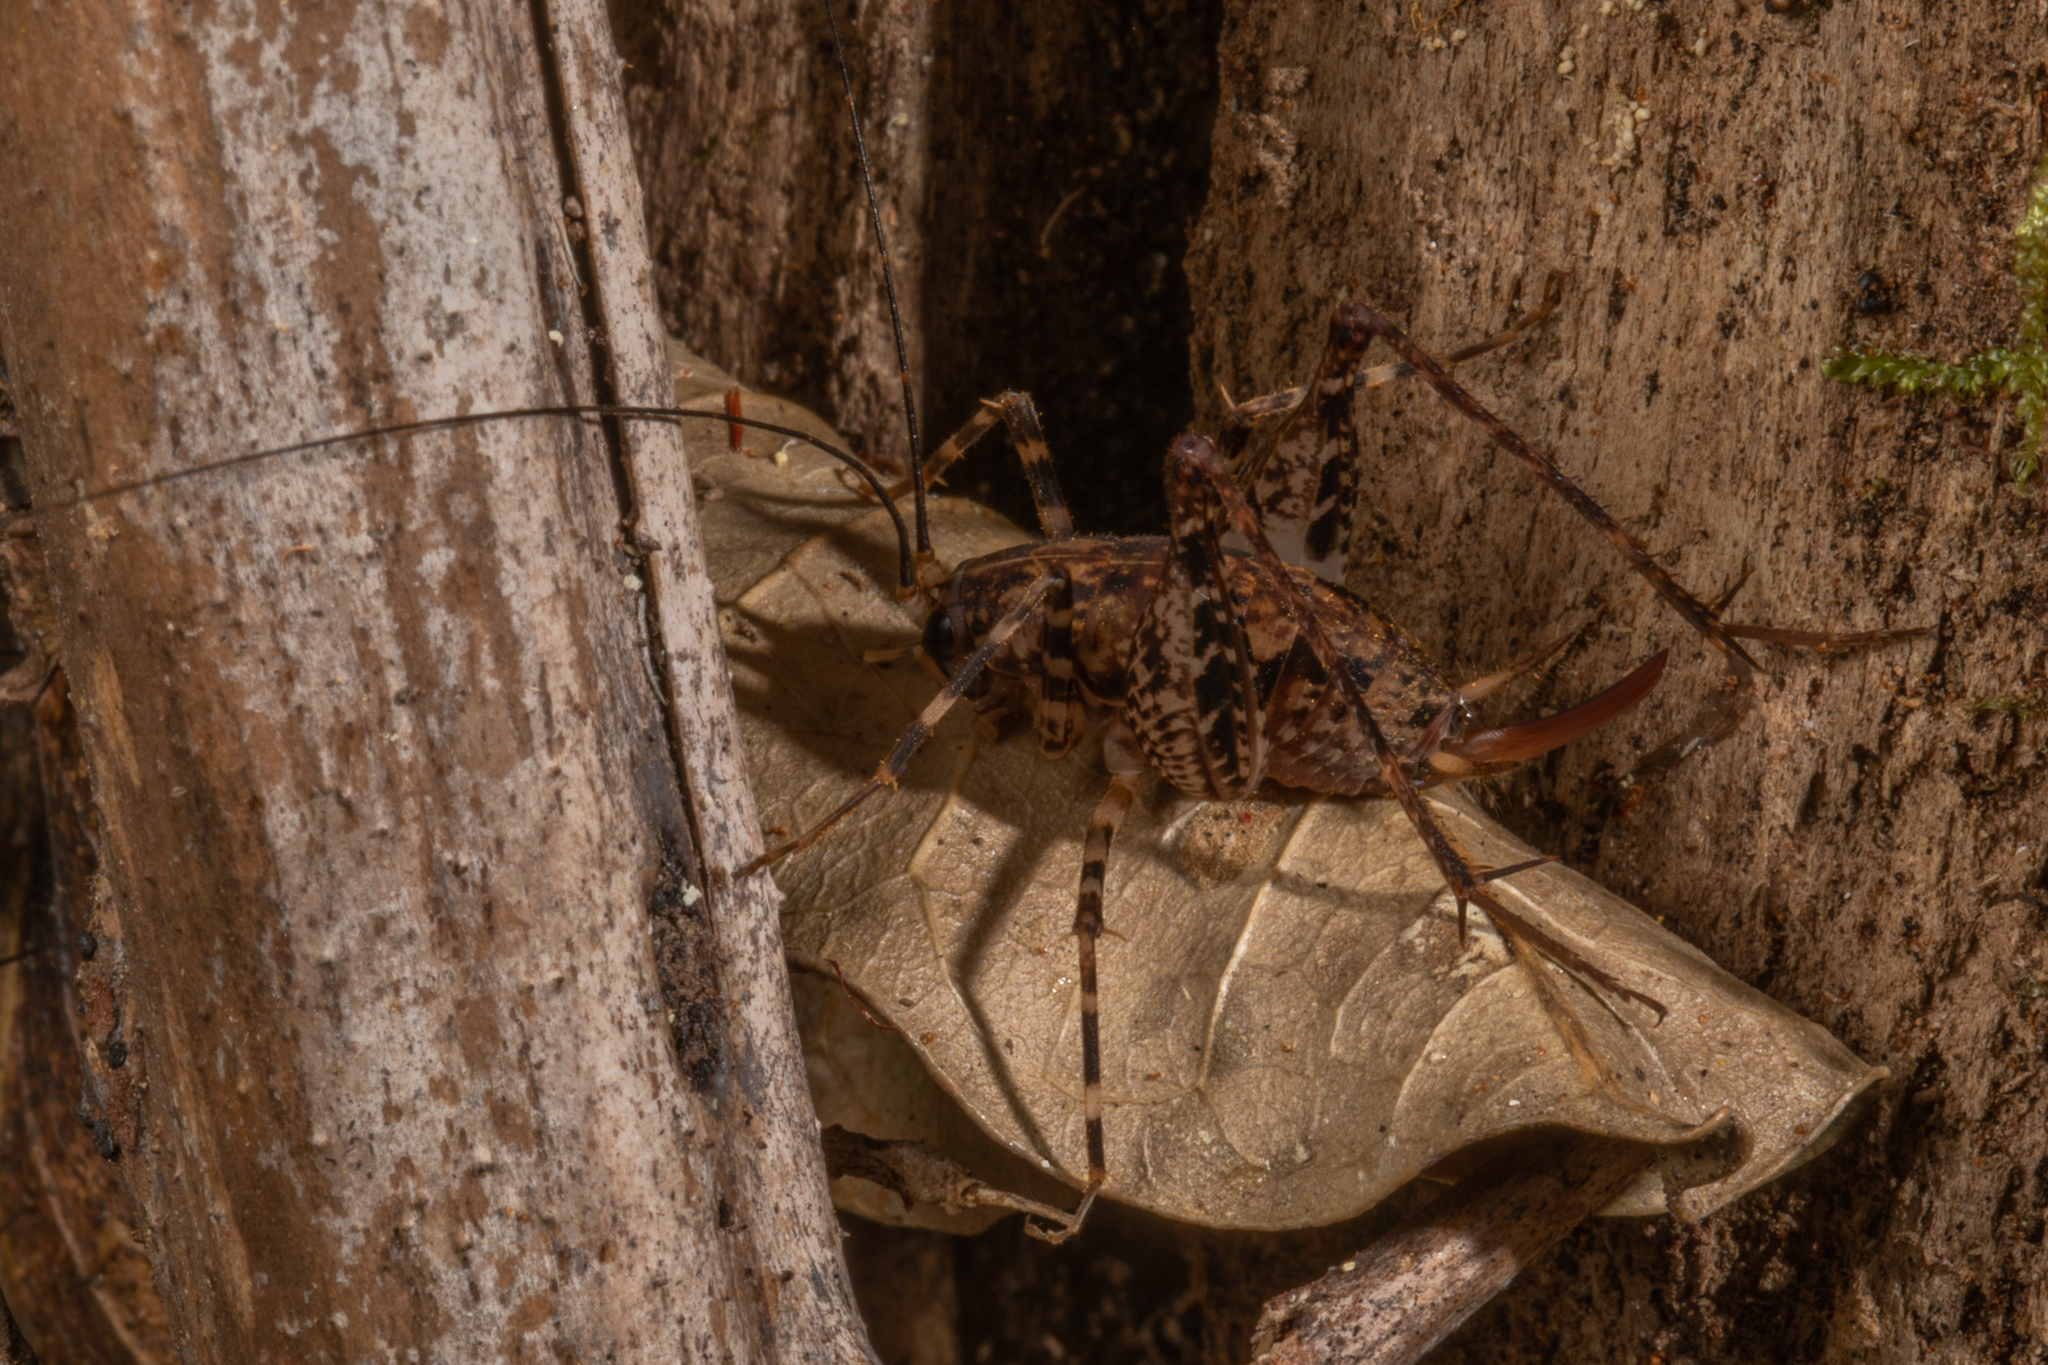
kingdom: Animalia
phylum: Arthropoda
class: Insecta
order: Orthoptera
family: Rhaphidophoridae
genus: Pleioplectron
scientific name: Pleioplectron hudsoni
